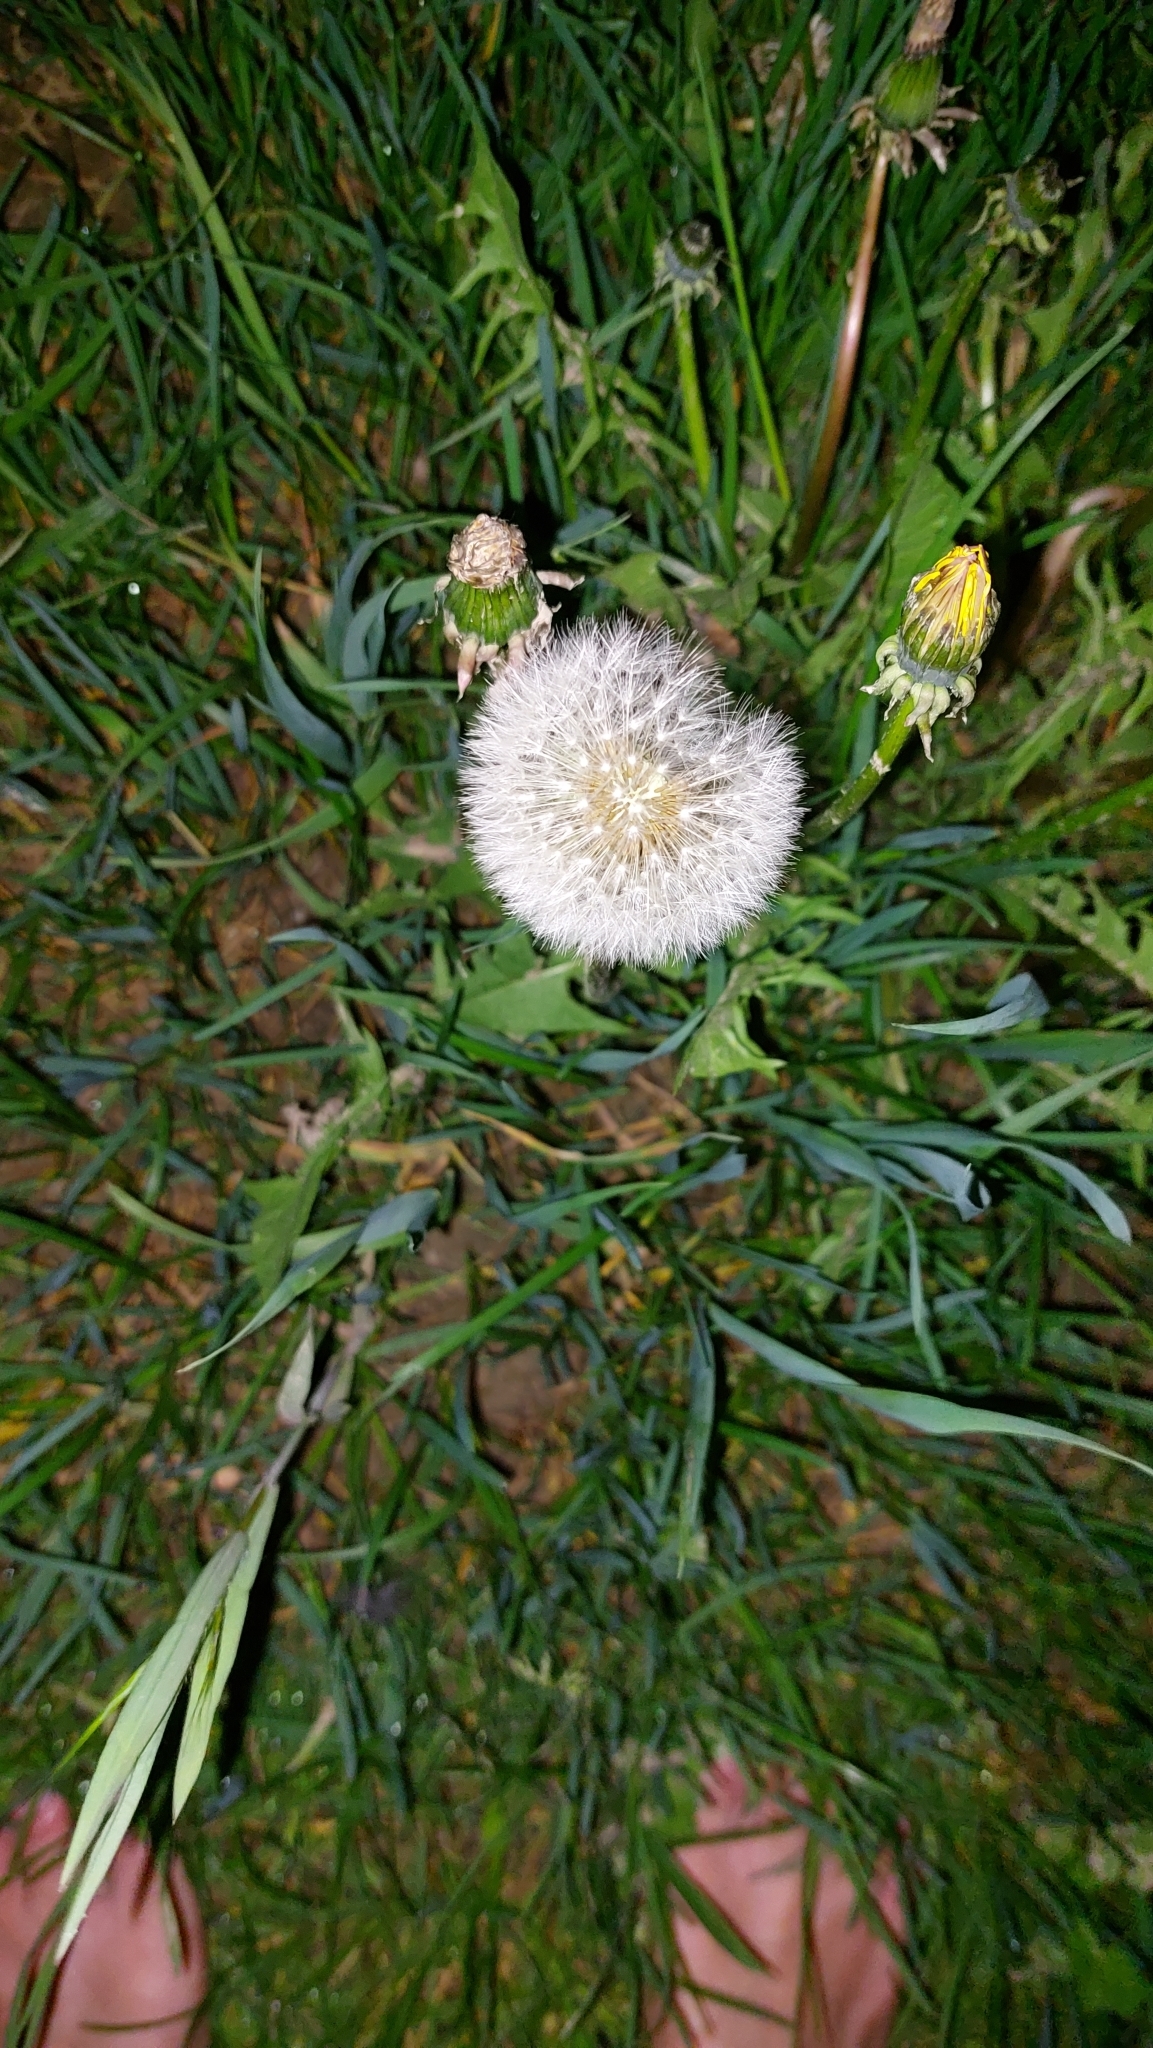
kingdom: Plantae
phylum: Tracheophyta
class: Magnoliopsida
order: Asterales
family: Asteraceae
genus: Taraxacum
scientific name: Taraxacum
